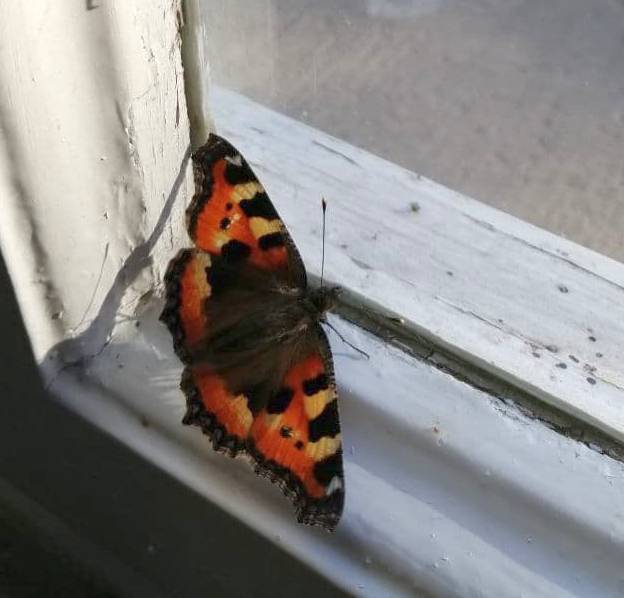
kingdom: Animalia
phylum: Arthropoda
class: Insecta
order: Lepidoptera
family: Nymphalidae
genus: Aglais
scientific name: Aglais urticae
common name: Small tortoiseshell
